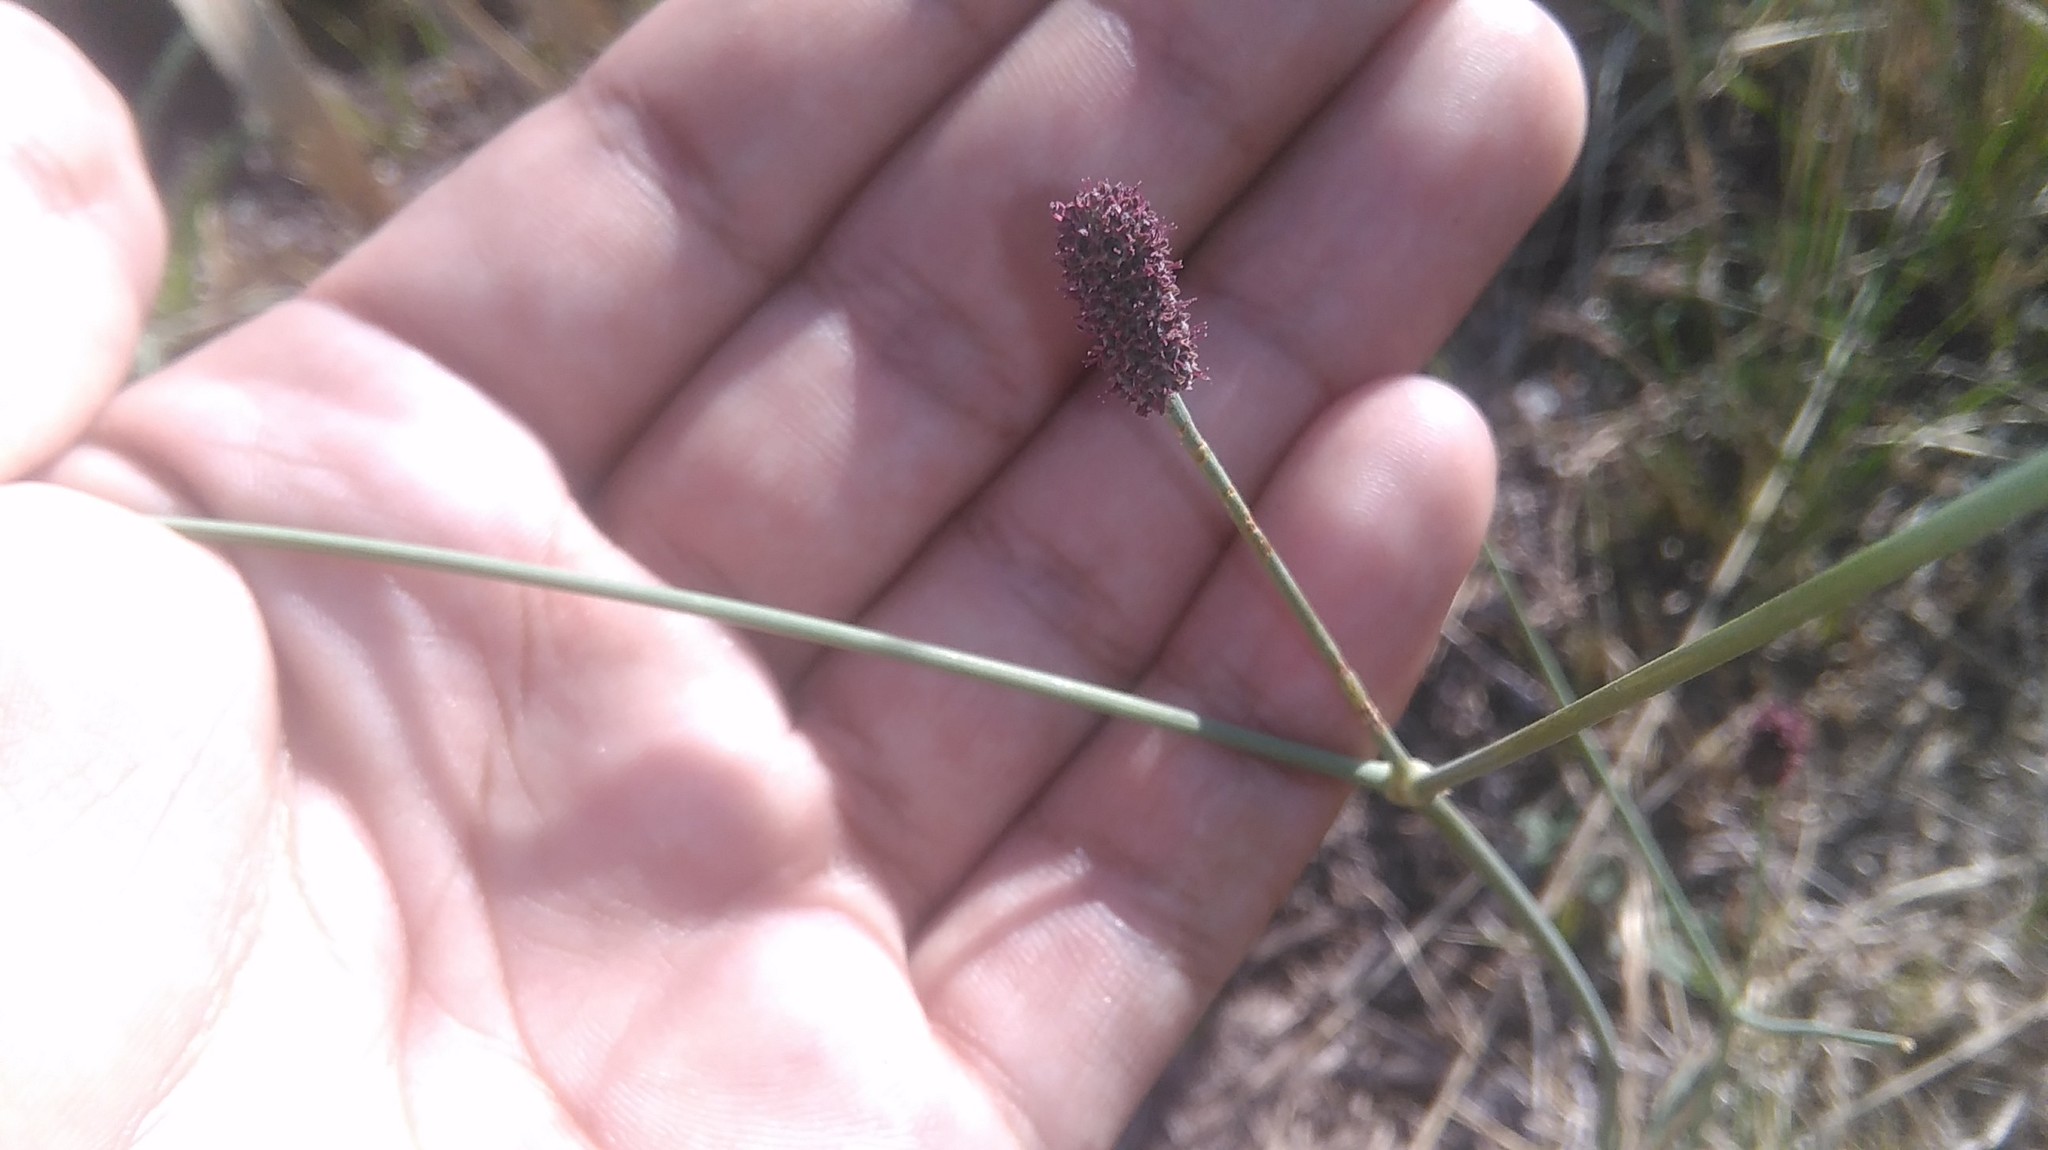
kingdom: Plantae
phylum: Tracheophyta
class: Magnoliopsida
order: Apiales
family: Apiaceae
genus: Eryngium
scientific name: Eryngium ebracteatum
